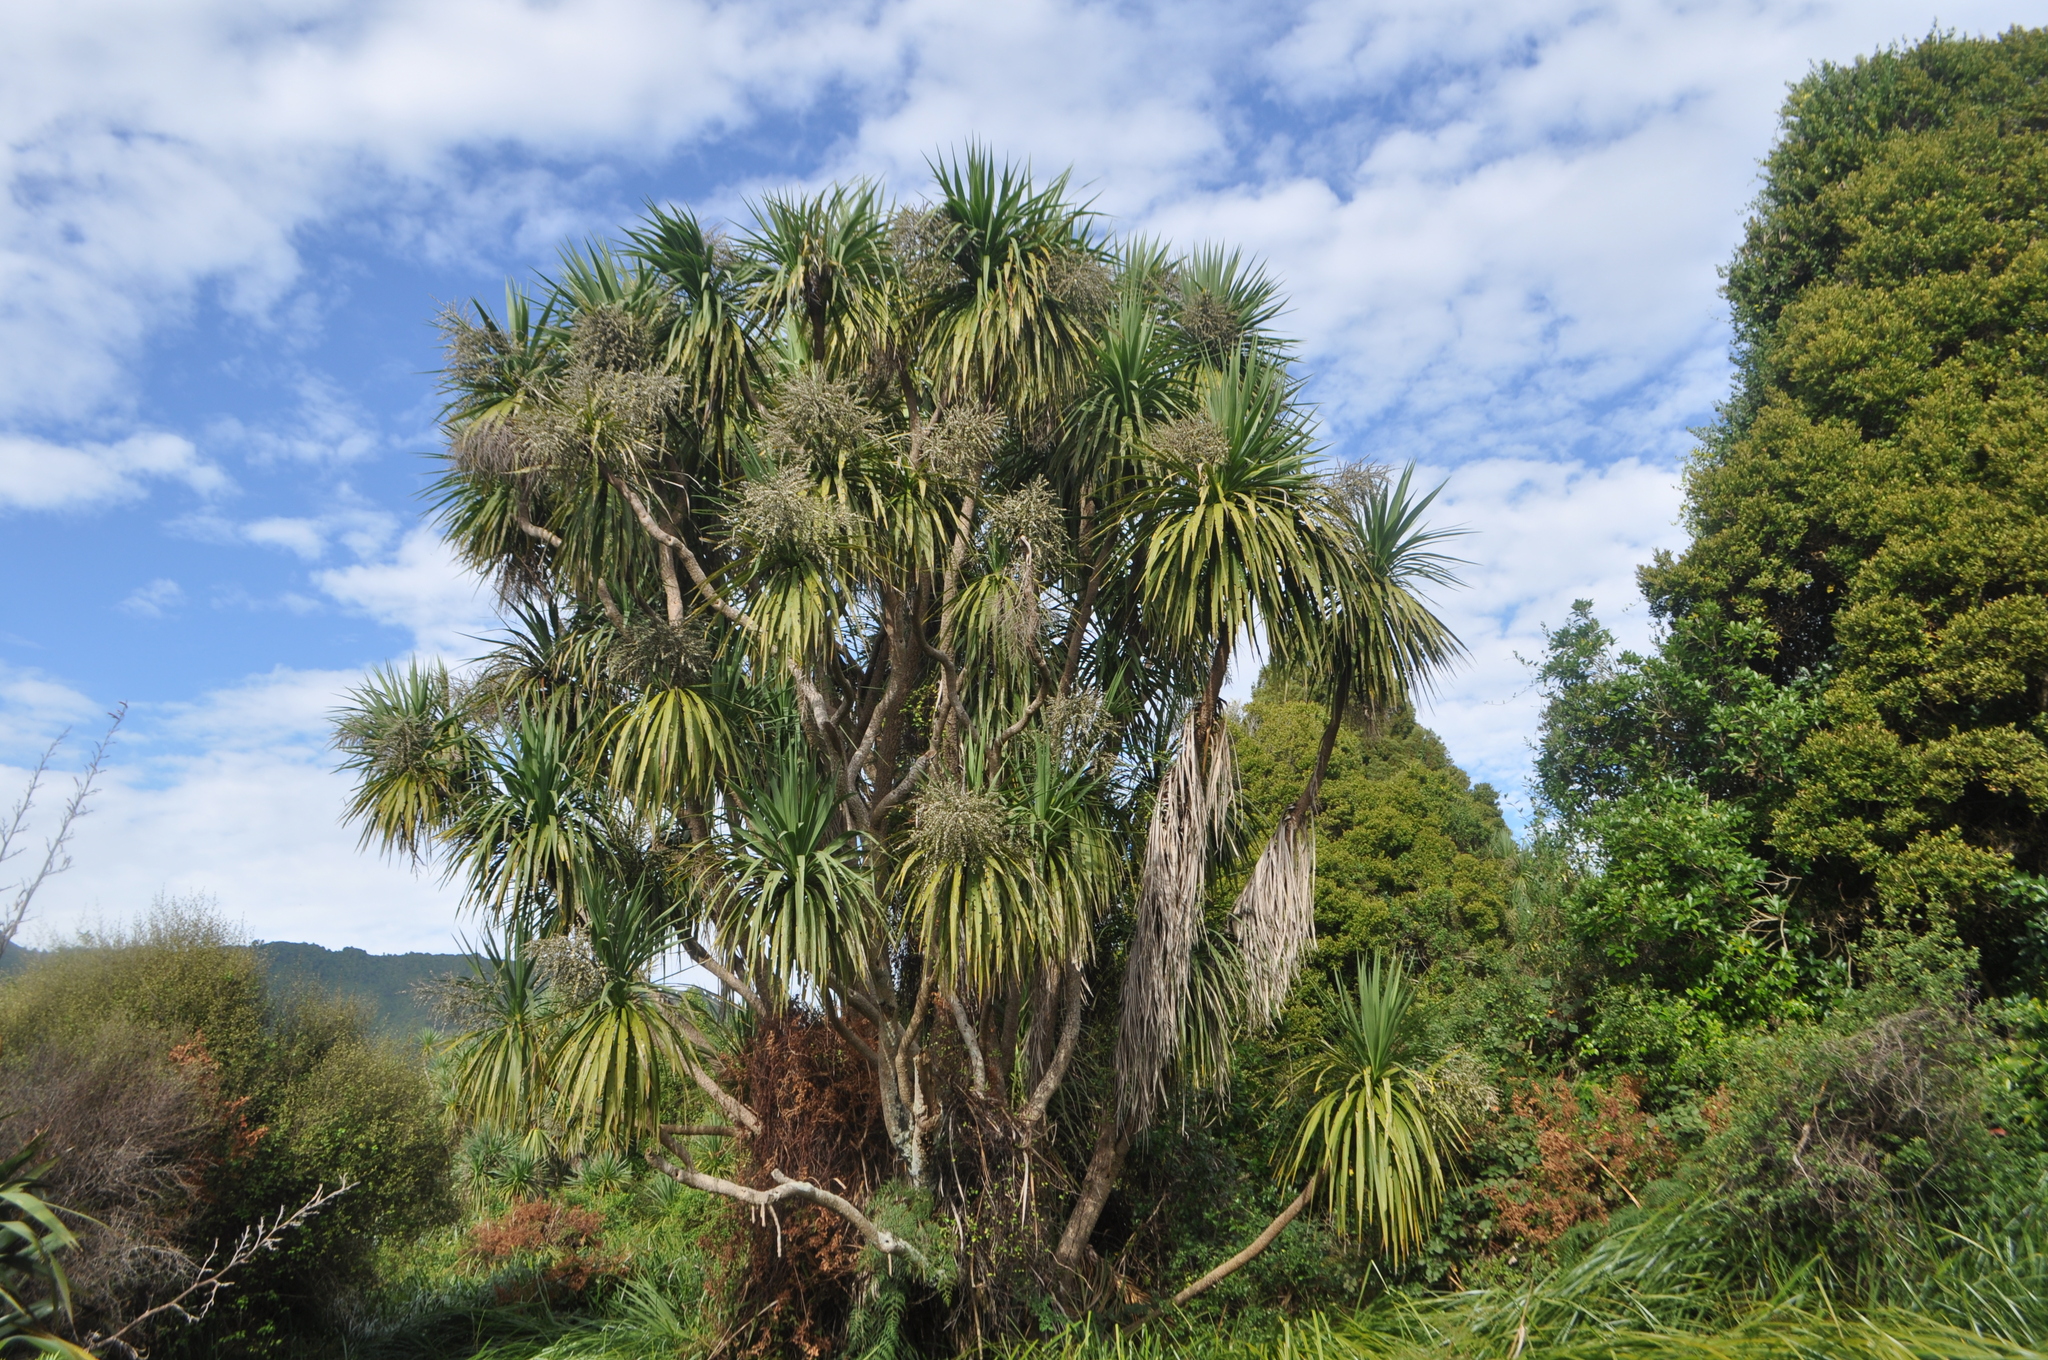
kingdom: Plantae
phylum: Tracheophyta
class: Liliopsida
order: Asparagales
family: Asparagaceae
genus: Cordyline
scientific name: Cordyline australis
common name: Cabbage-palm
